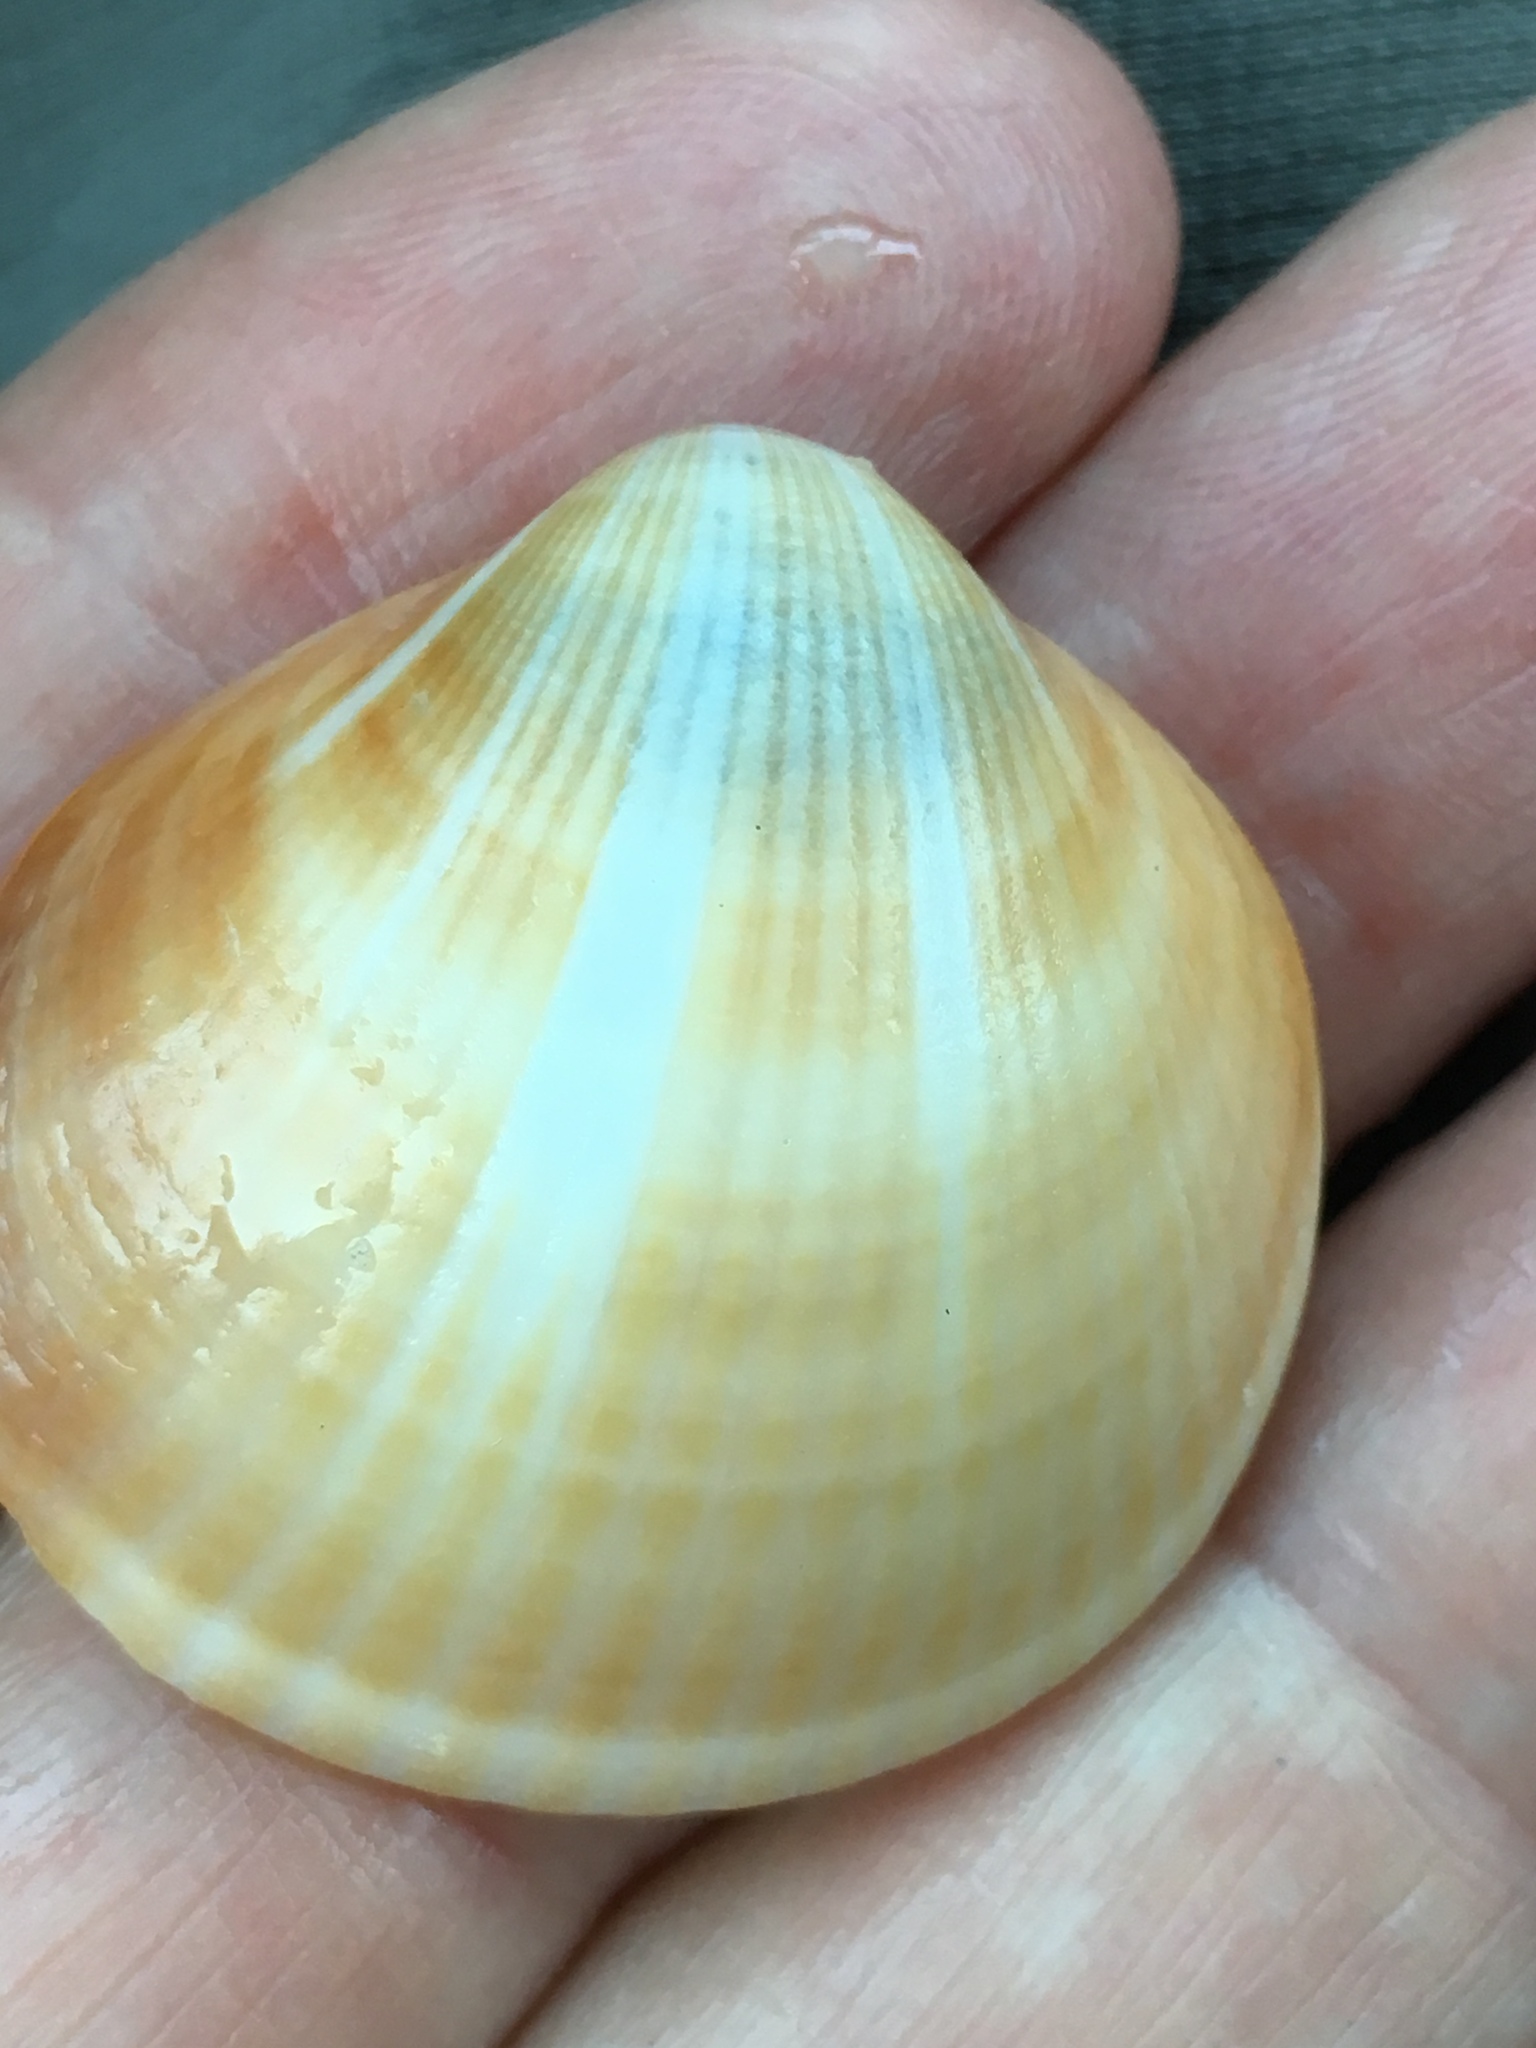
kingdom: Animalia
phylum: Mollusca
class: Bivalvia
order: Arcida
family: Glycymerididae
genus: Glycymeris
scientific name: Glycymeris spectralis
